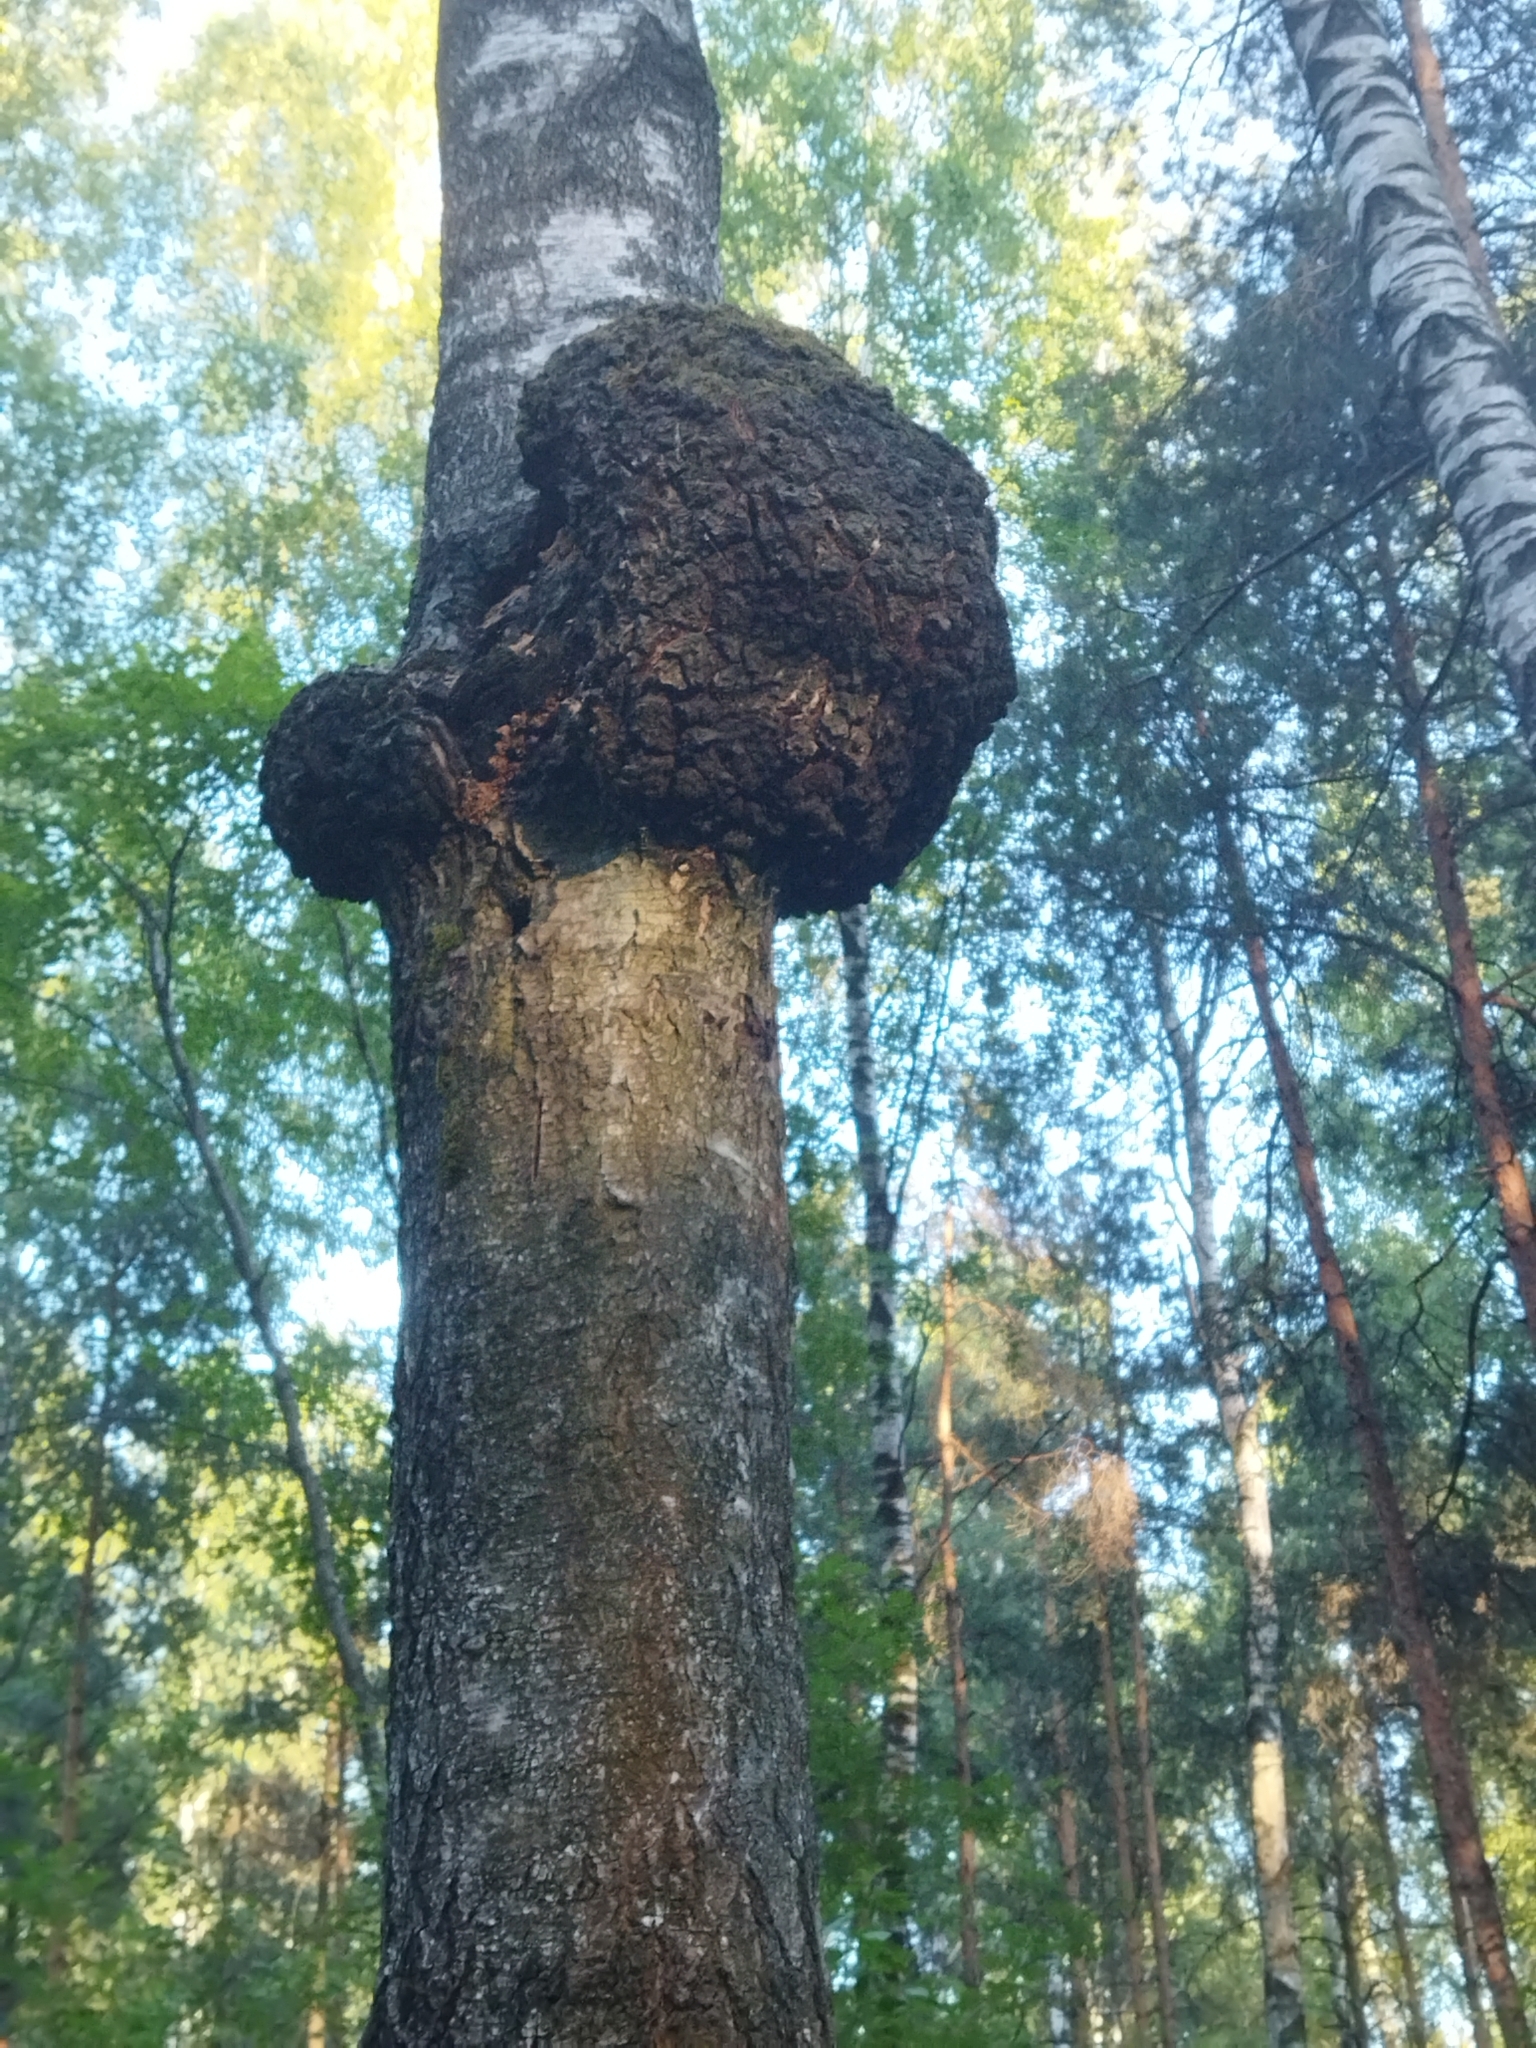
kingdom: Bacteria
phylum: Proteobacteria
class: Alphaproteobacteria
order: Rhizobiales
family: Rhizobiaceae
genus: Rhizobium
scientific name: Rhizobium Agrobacterium radiobacter
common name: Bacterial crown gall
